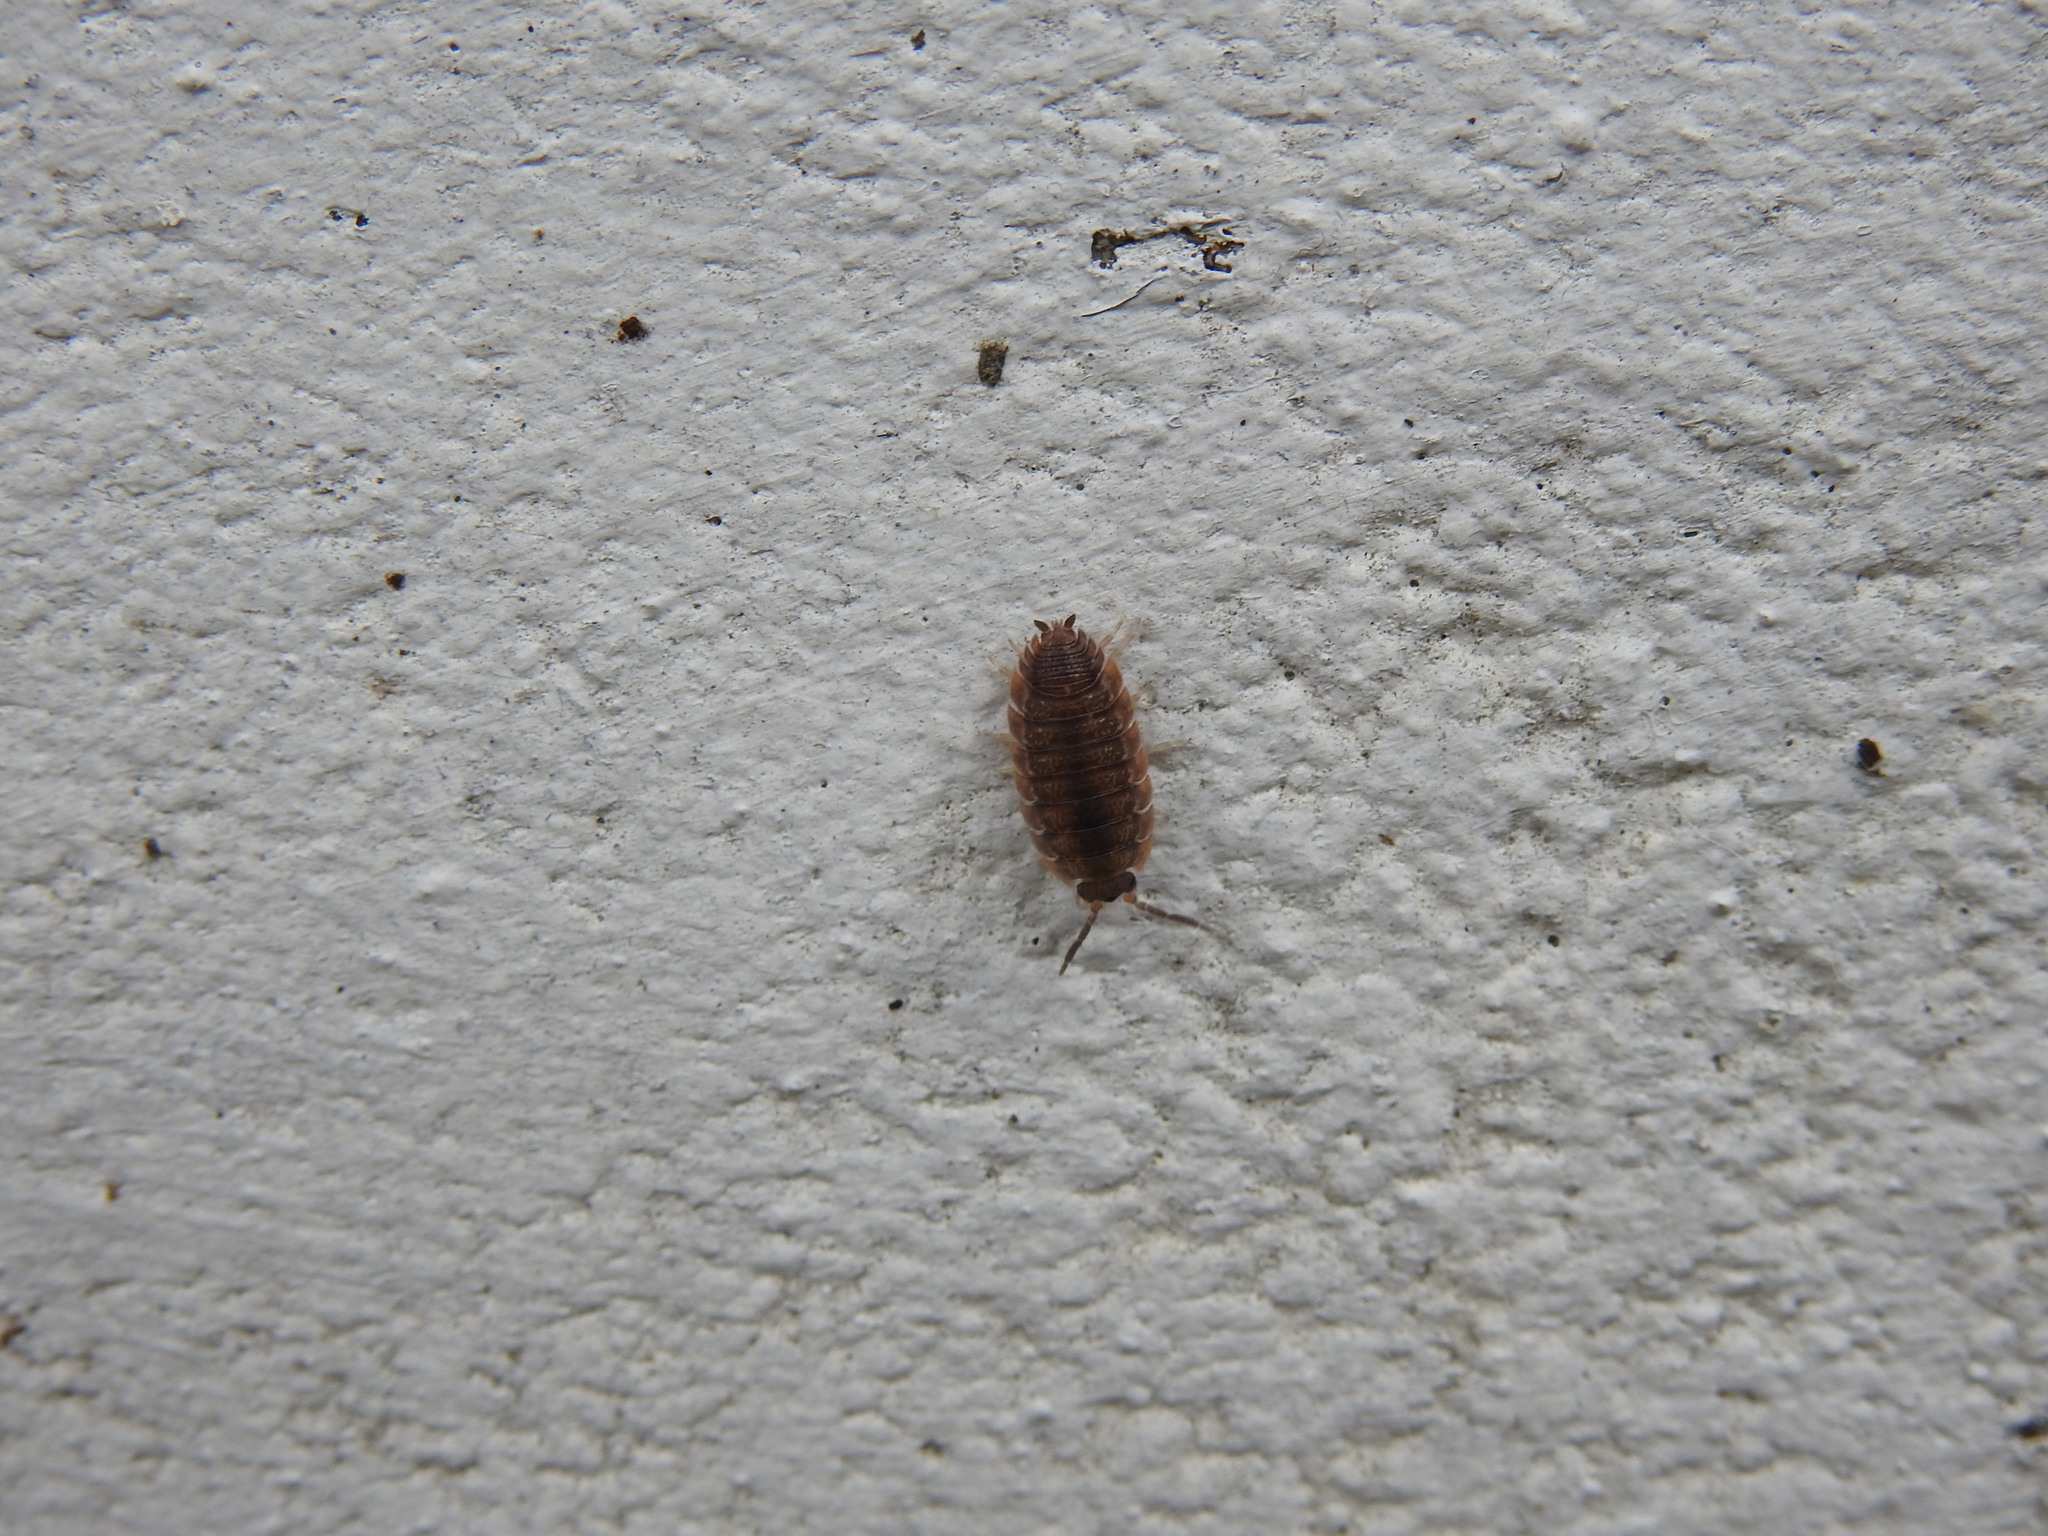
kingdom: Animalia
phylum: Arthropoda
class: Malacostraca
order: Isopoda
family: Porcellionidae
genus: Porcellio
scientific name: Porcellio scaber
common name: Common rough woodlouse
